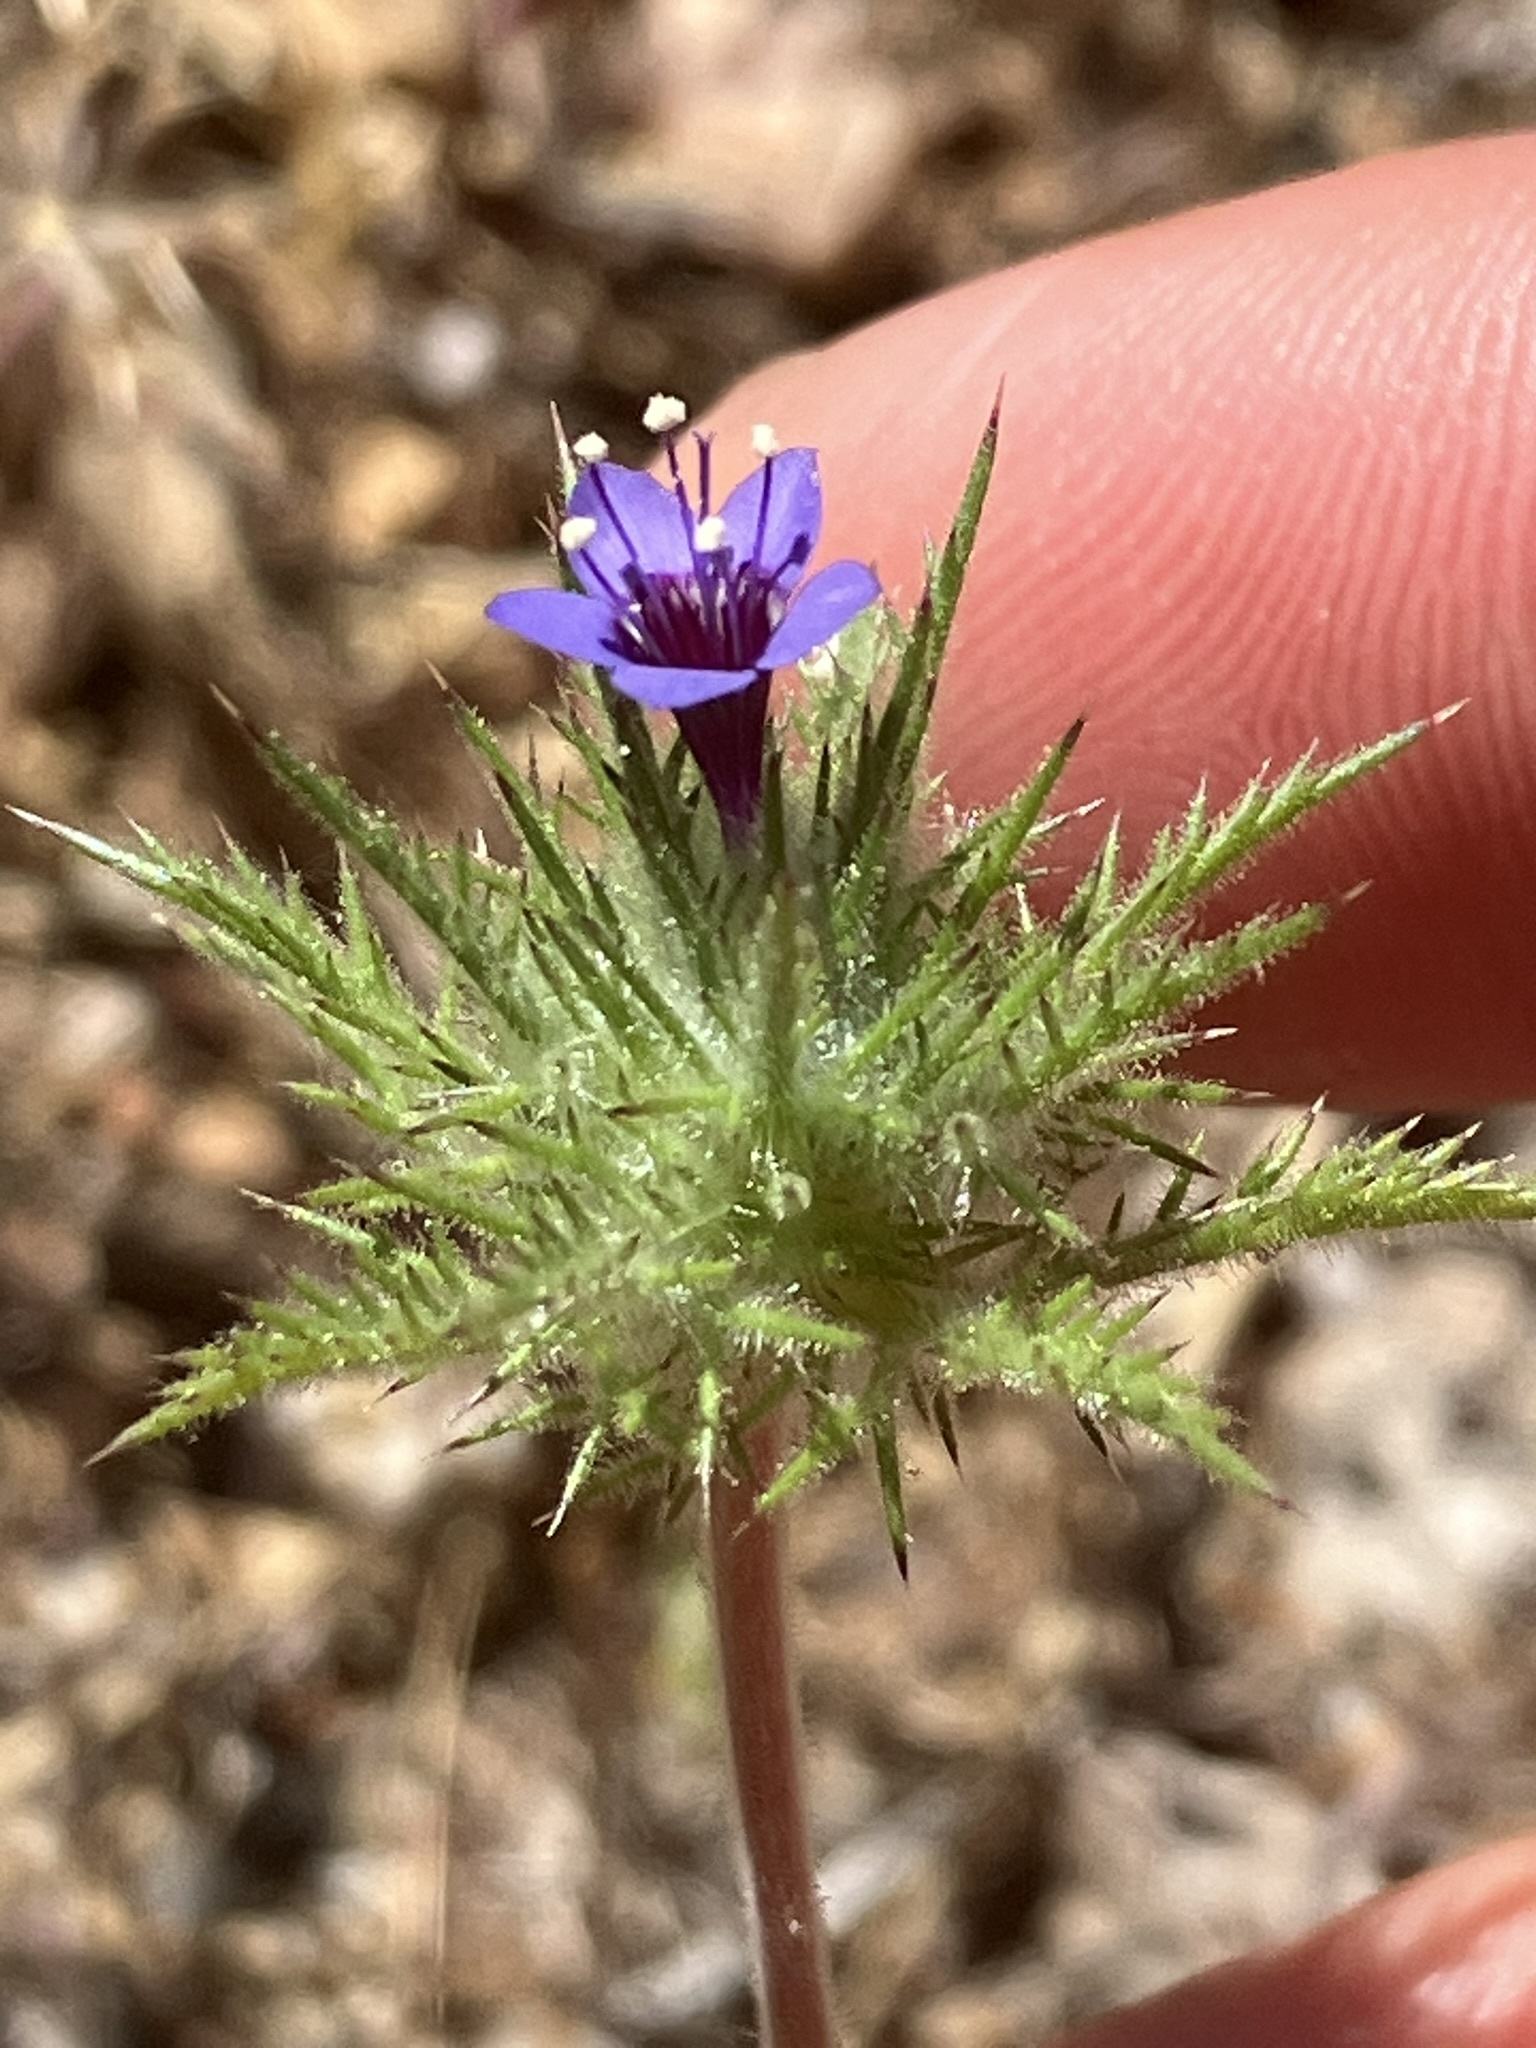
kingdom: Plantae
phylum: Tracheophyta
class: Magnoliopsida
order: Ericales
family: Polemoniaceae
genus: Navarretia
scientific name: Navarretia pubescens
